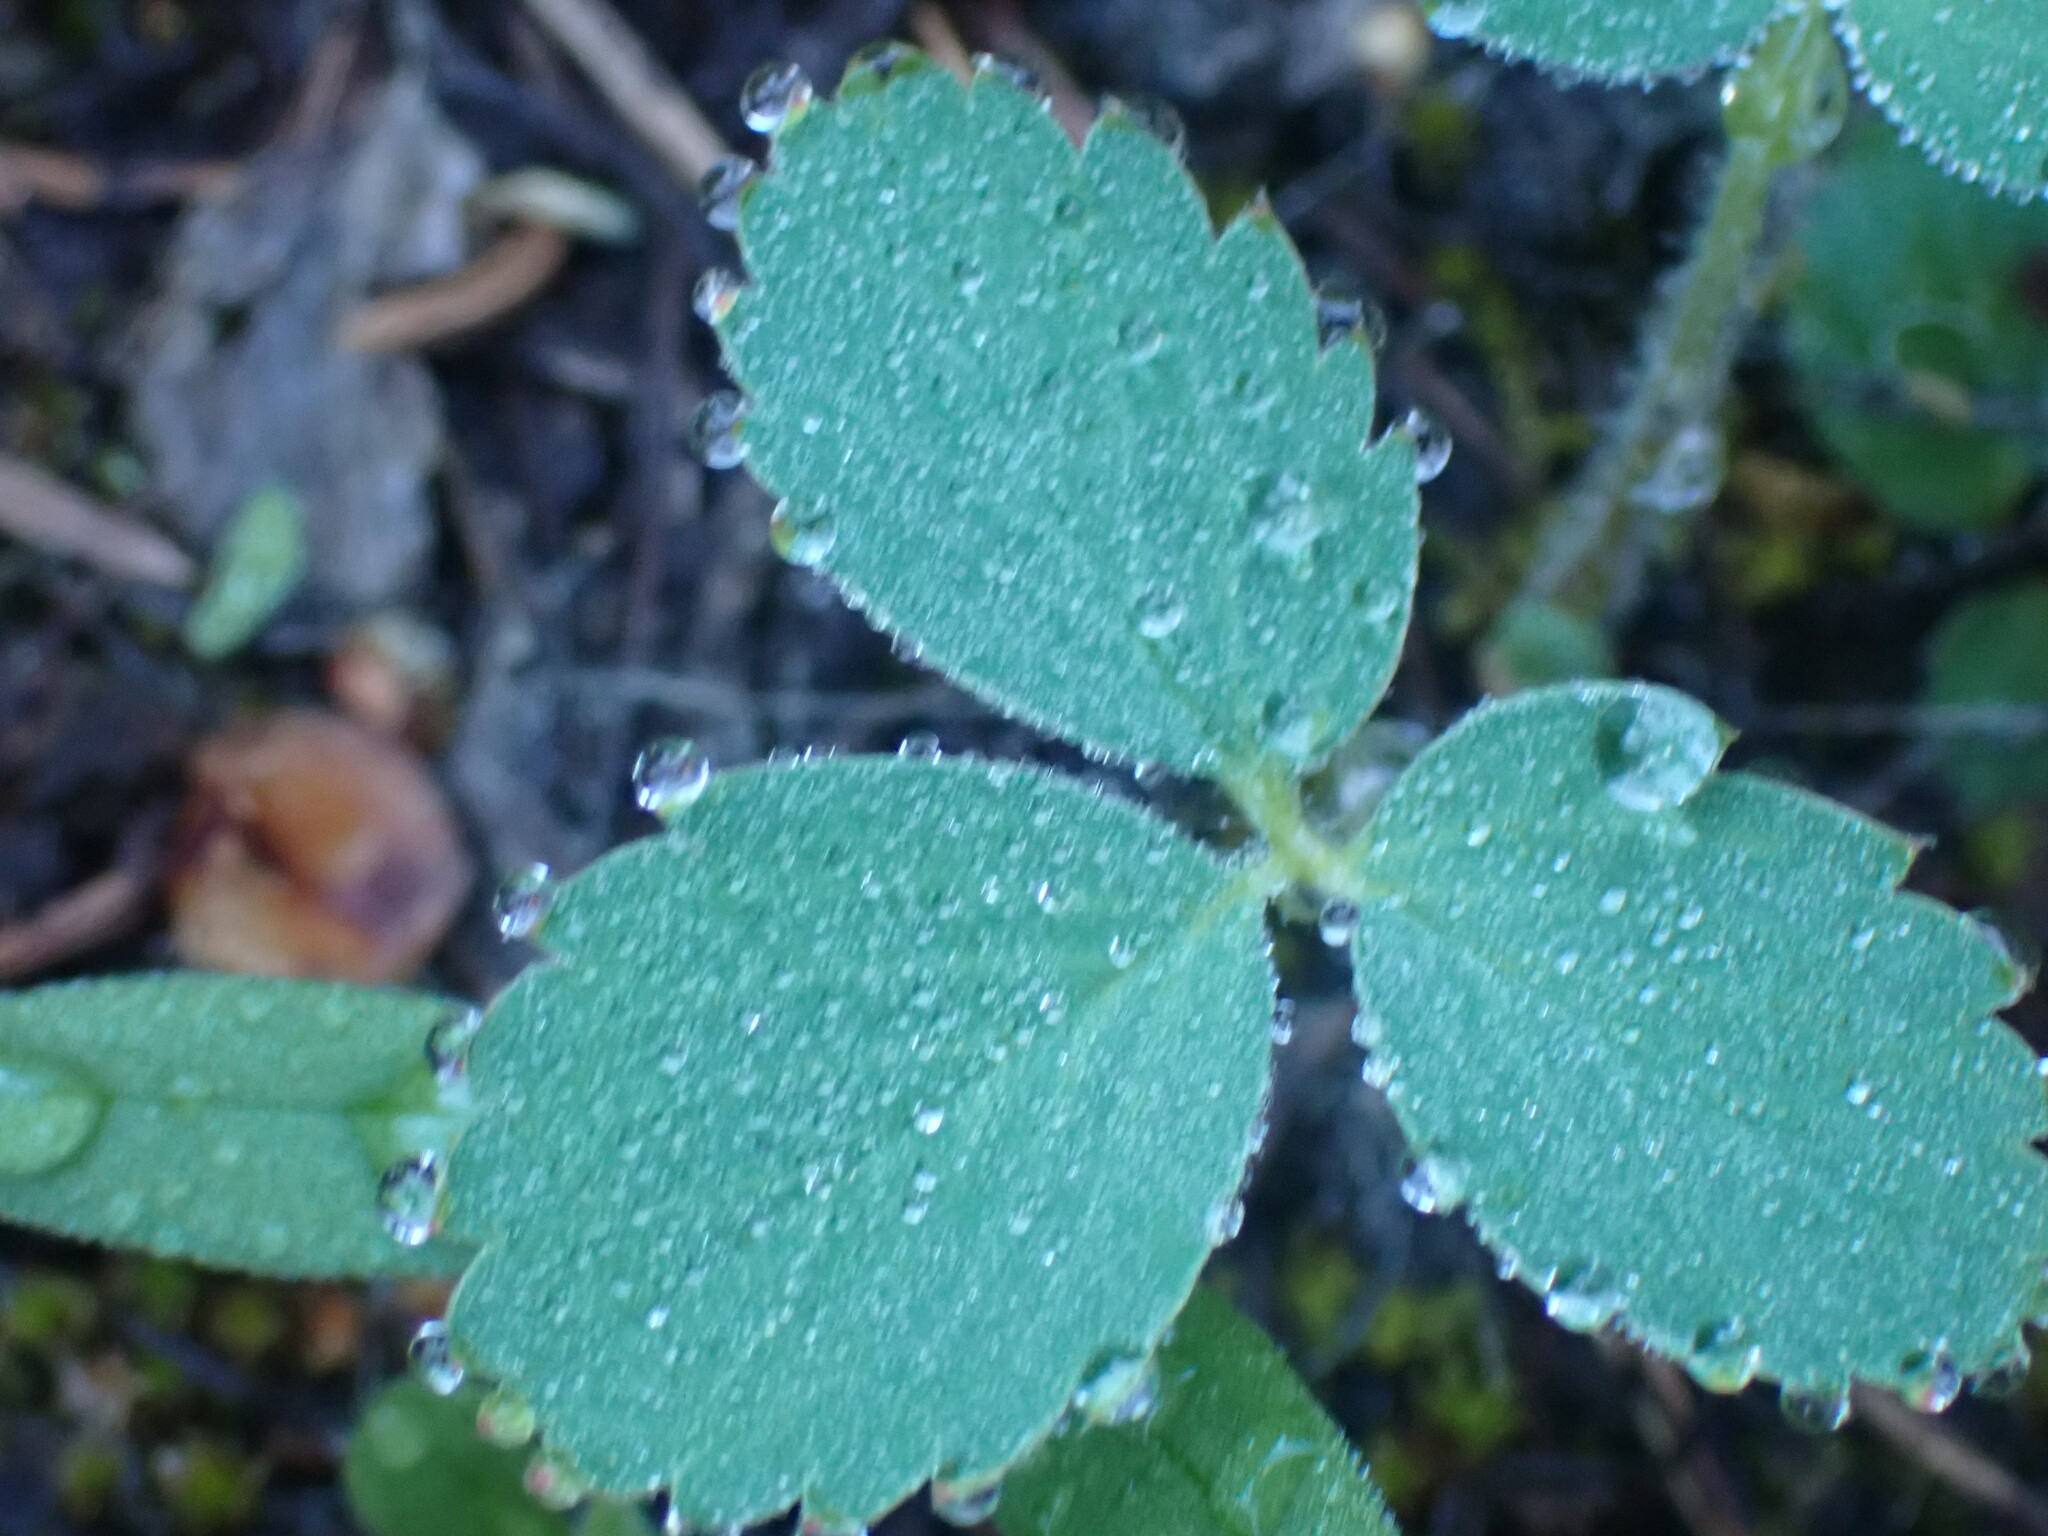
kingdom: Plantae
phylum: Tracheophyta
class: Magnoliopsida
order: Rosales
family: Rosaceae
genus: Fragaria
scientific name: Fragaria virginiana
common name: Thickleaved wild strawberry
